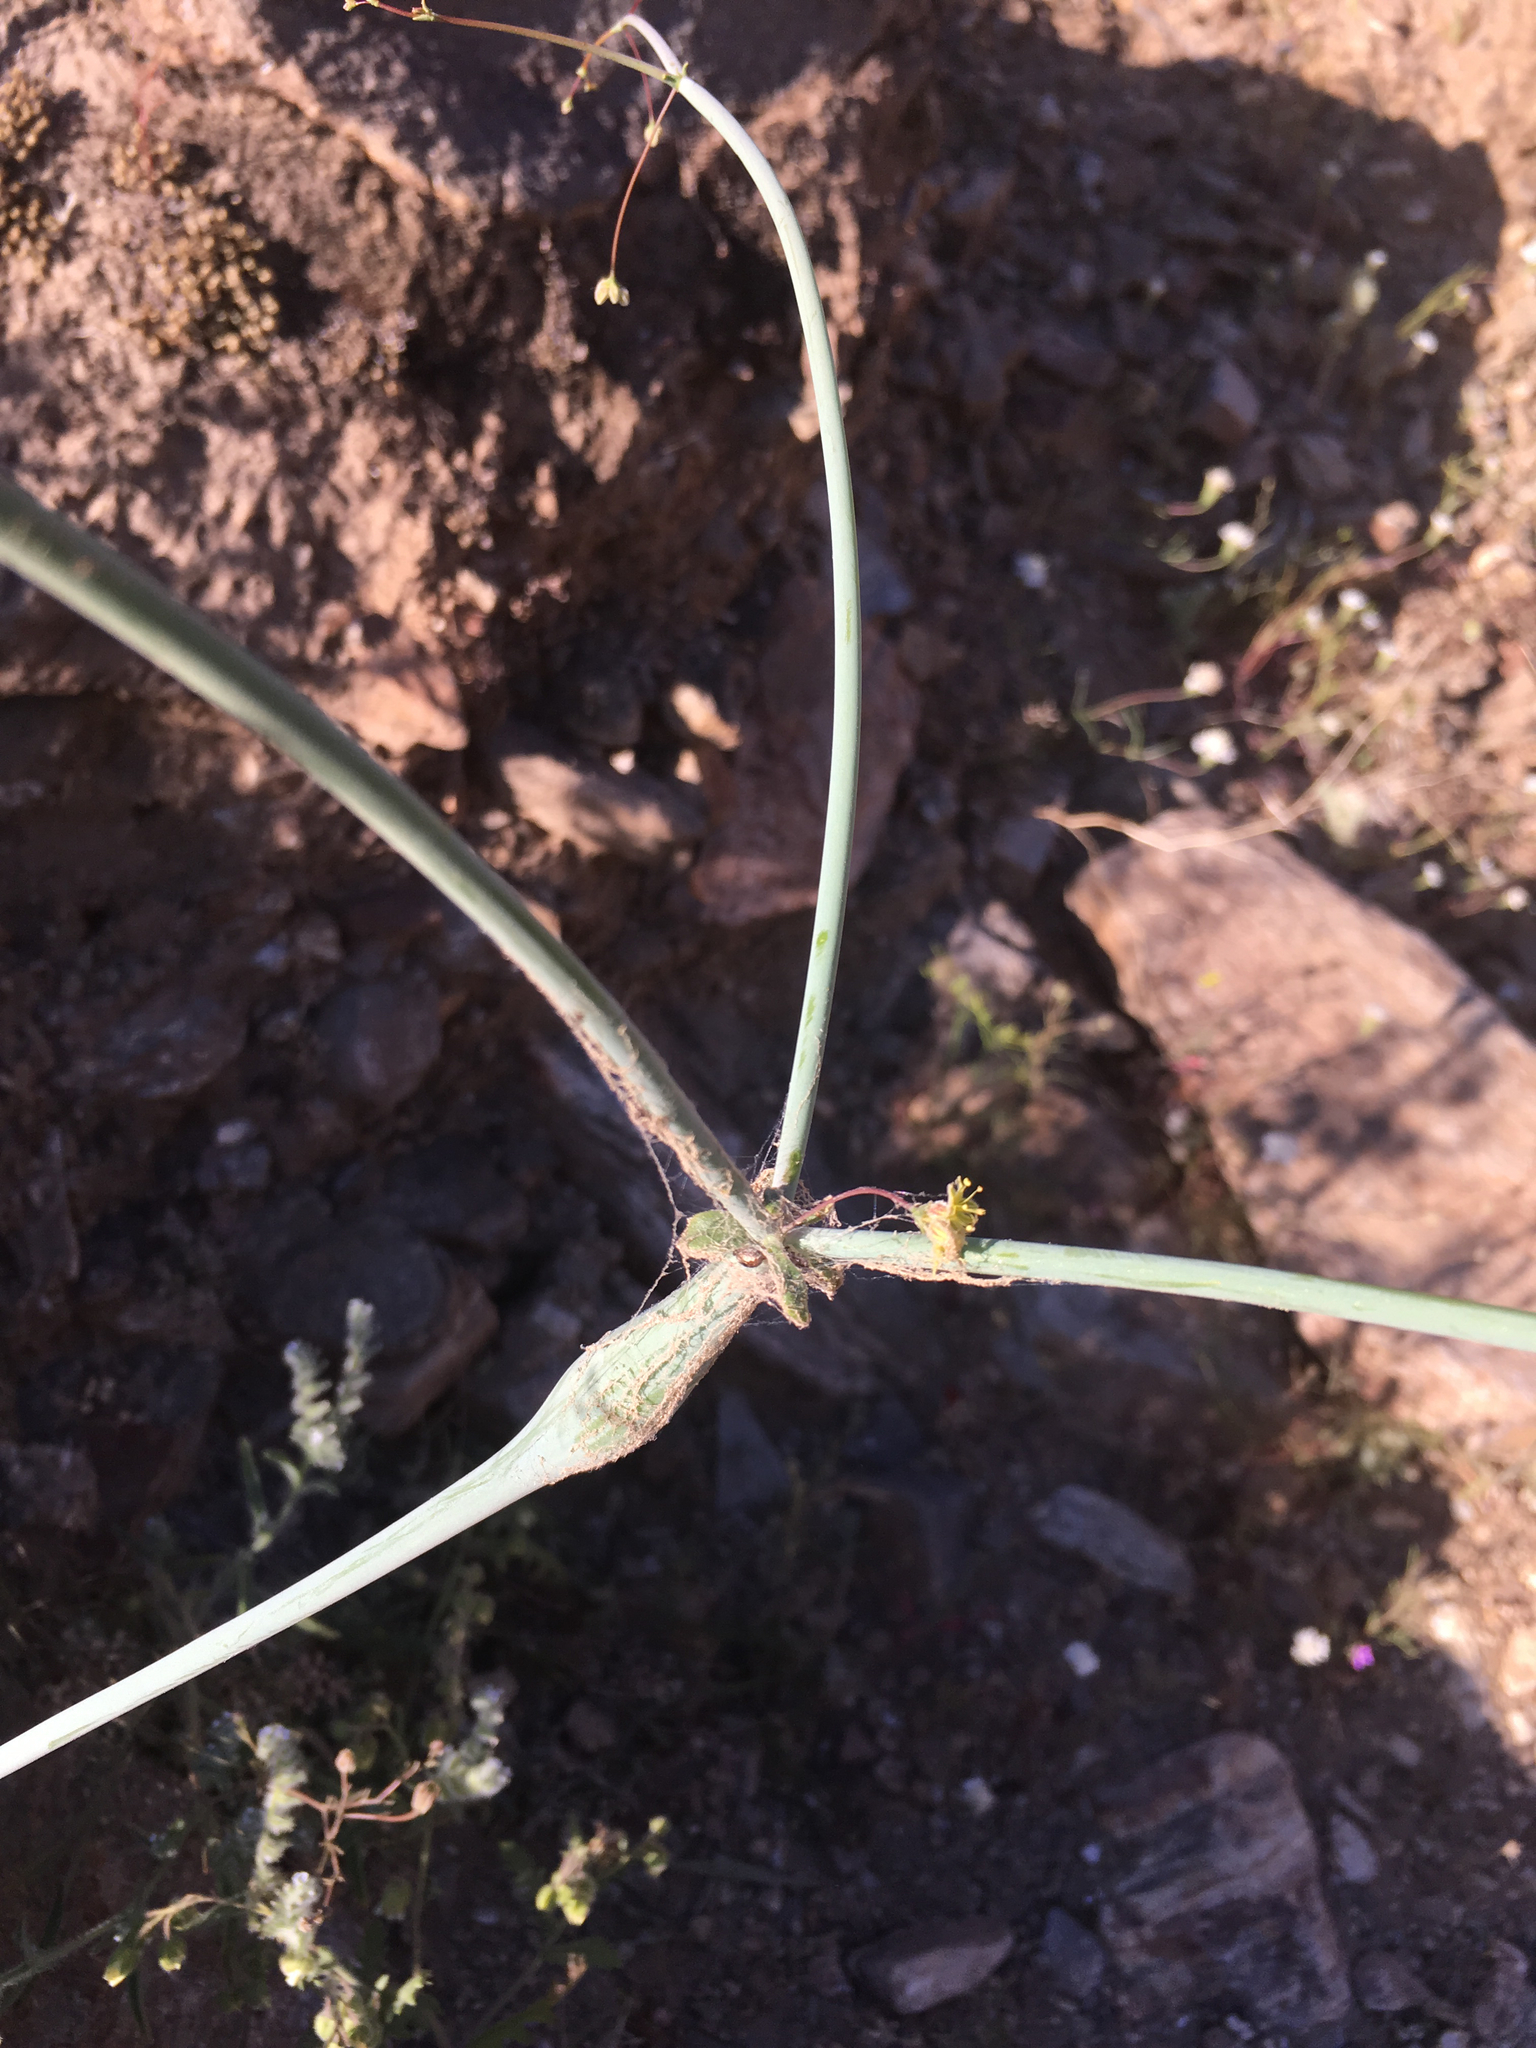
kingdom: Plantae
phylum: Tracheophyta
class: Magnoliopsida
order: Caryophyllales
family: Polygonaceae
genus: Eriogonum
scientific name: Eriogonum inflatum
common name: Desert trumpet
